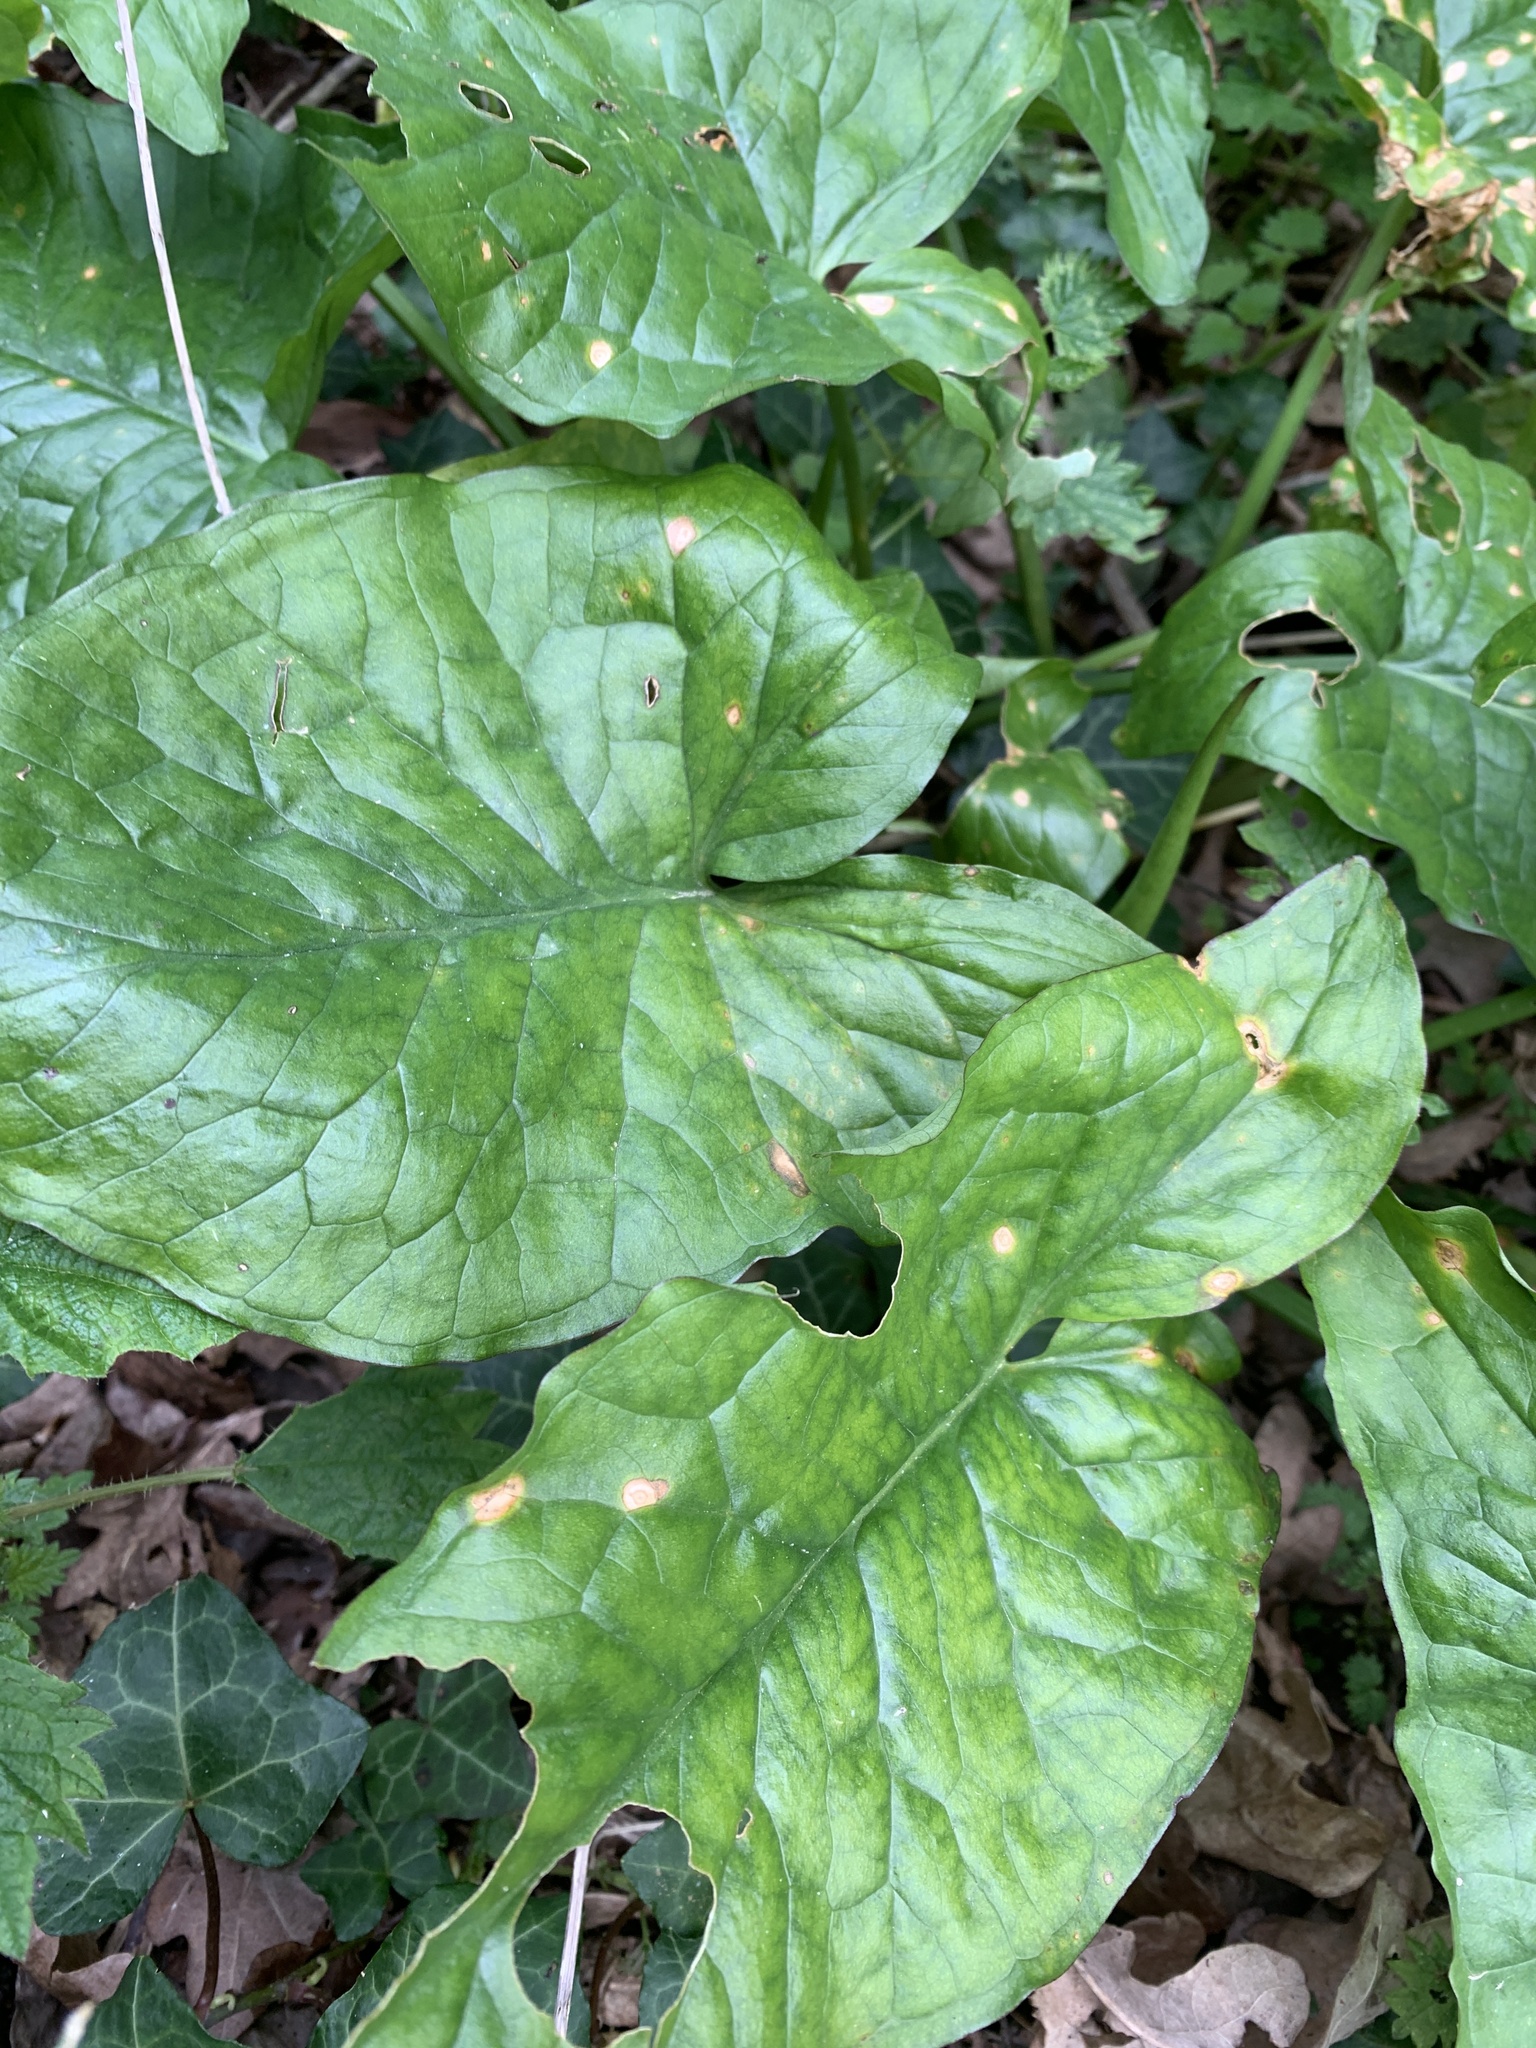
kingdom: Plantae
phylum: Tracheophyta
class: Liliopsida
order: Alismatales
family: Araceae
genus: Arum
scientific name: Arum maculatum
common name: Lords-and-ladies
